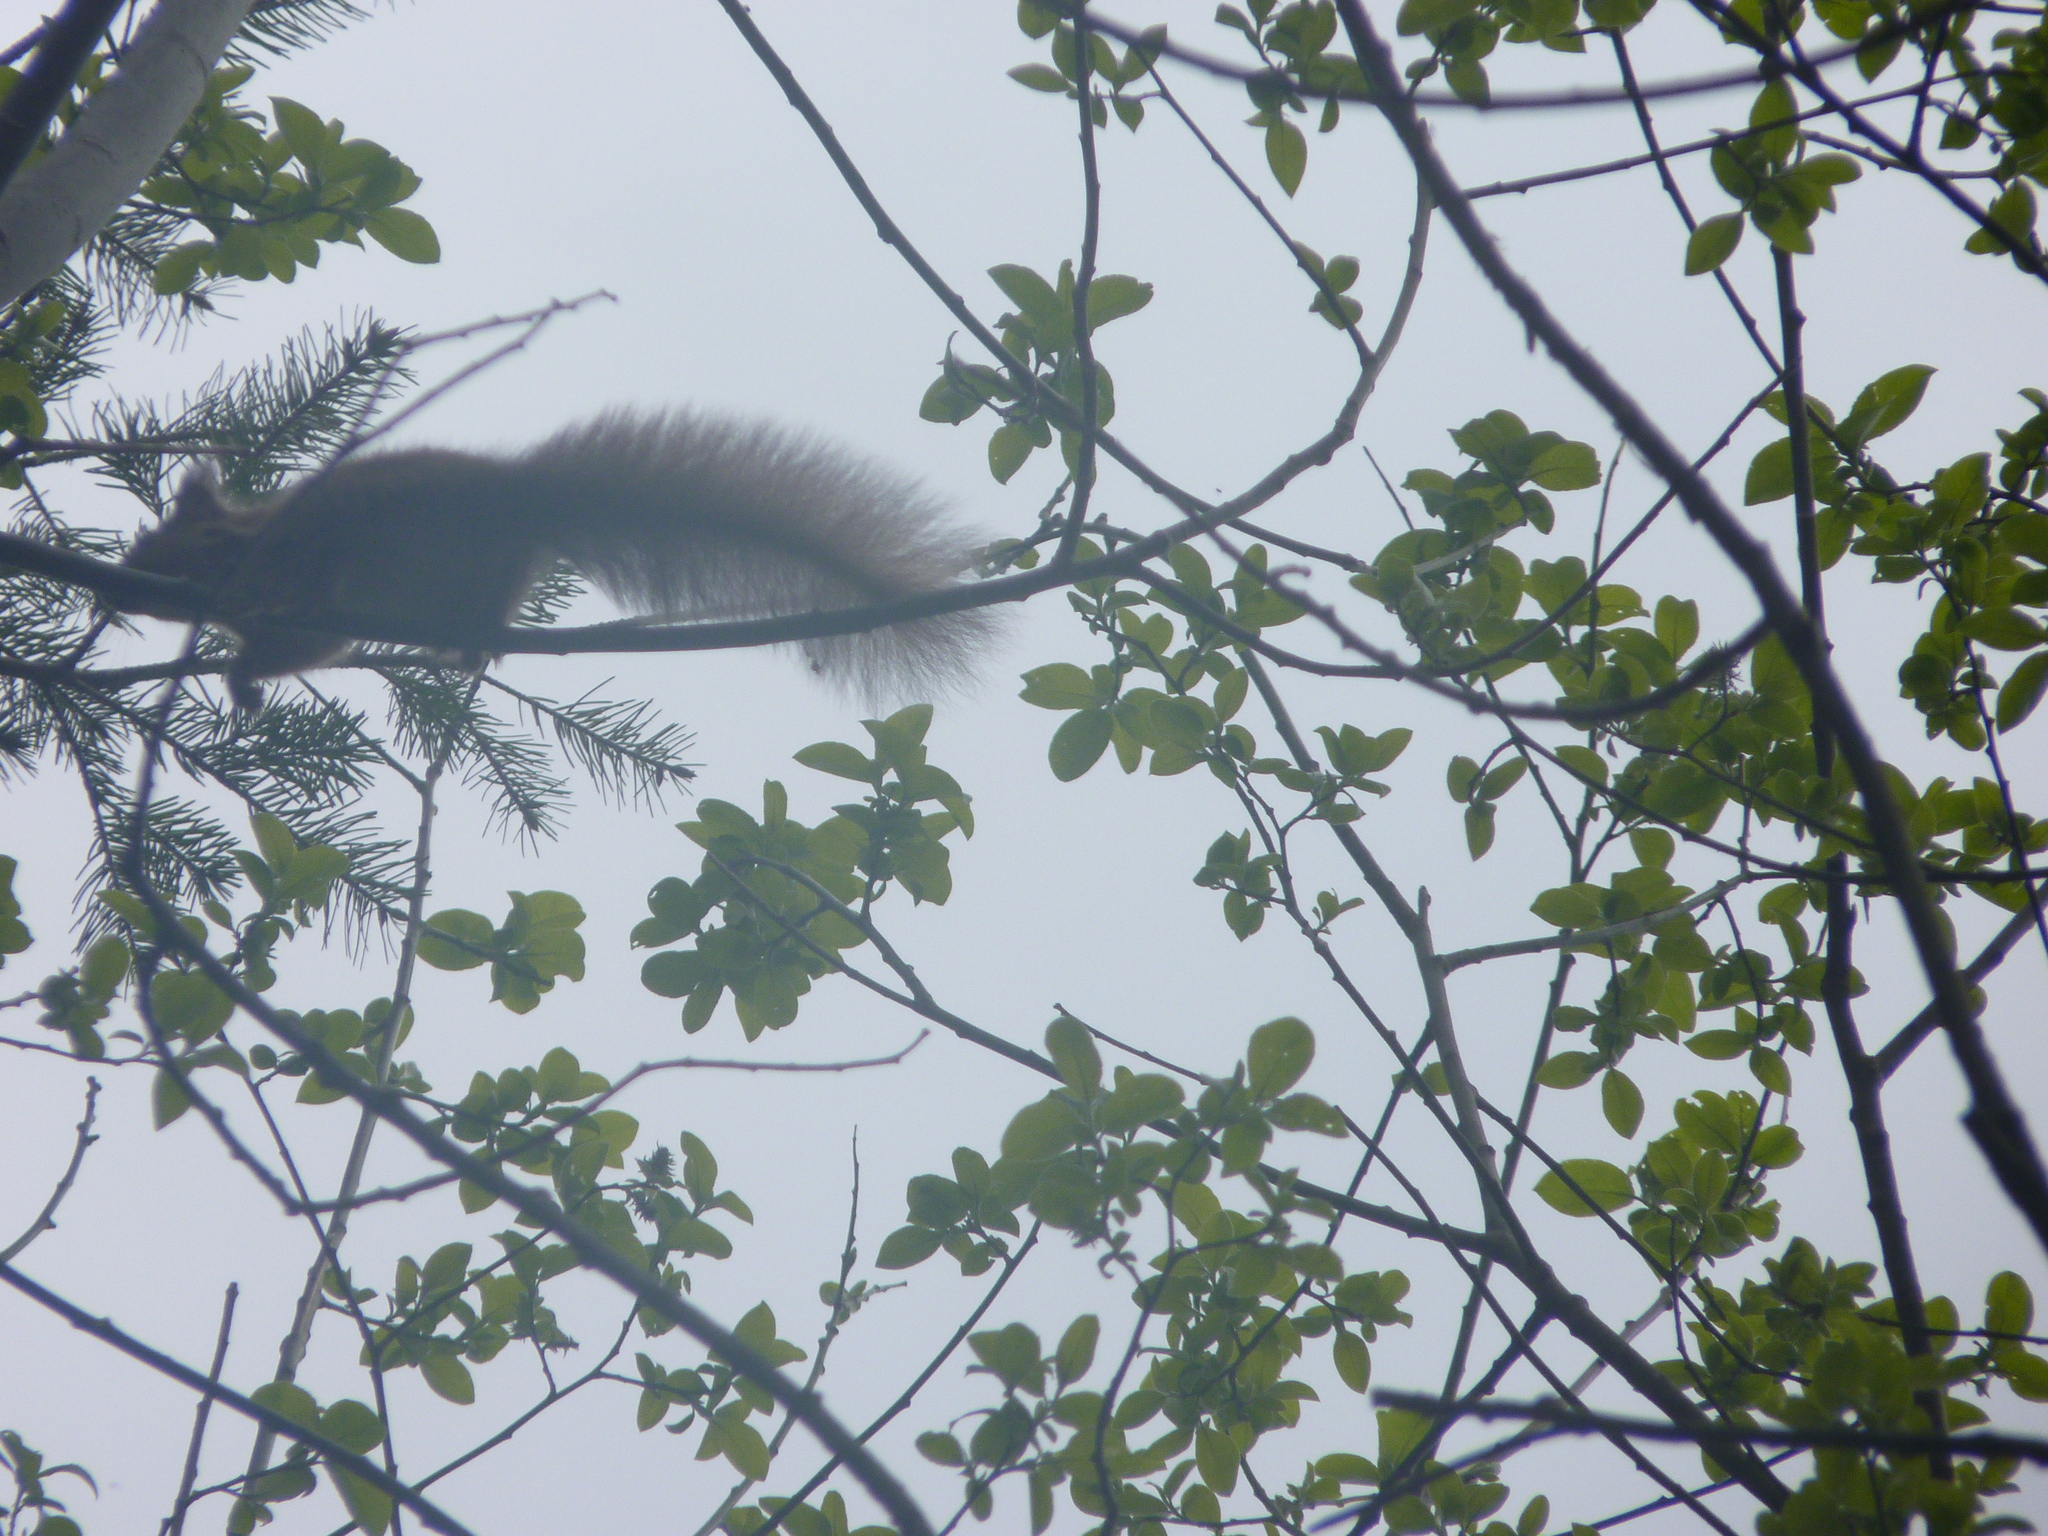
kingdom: Animalia
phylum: Chordata
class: Mammalia
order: Rodentia
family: Sciuridae
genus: Sciurus
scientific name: Sciurus vulgaris
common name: Eurasian red squirrel
